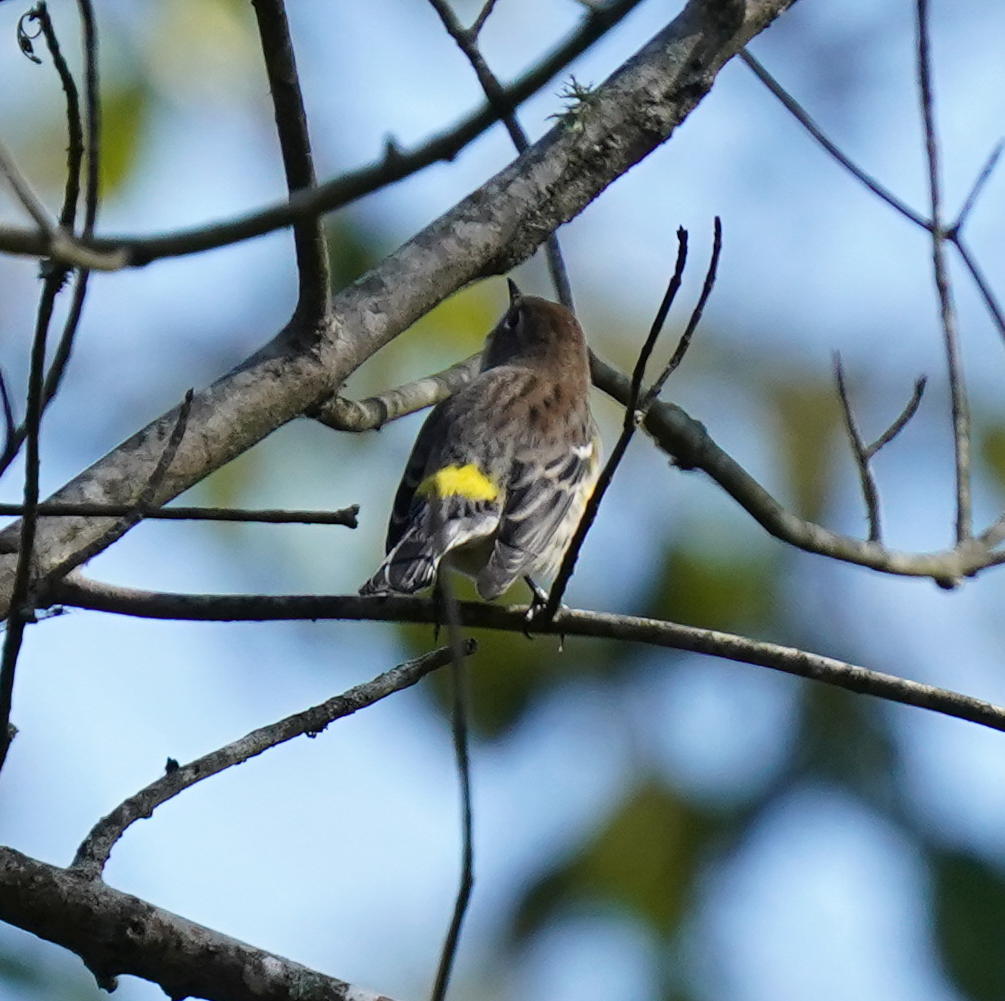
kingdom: Animalia
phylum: Chordata
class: Aves
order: Passeriformes
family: Parulidae
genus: Setophaga
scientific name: Setophaga coronata
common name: Myrtle warbler
